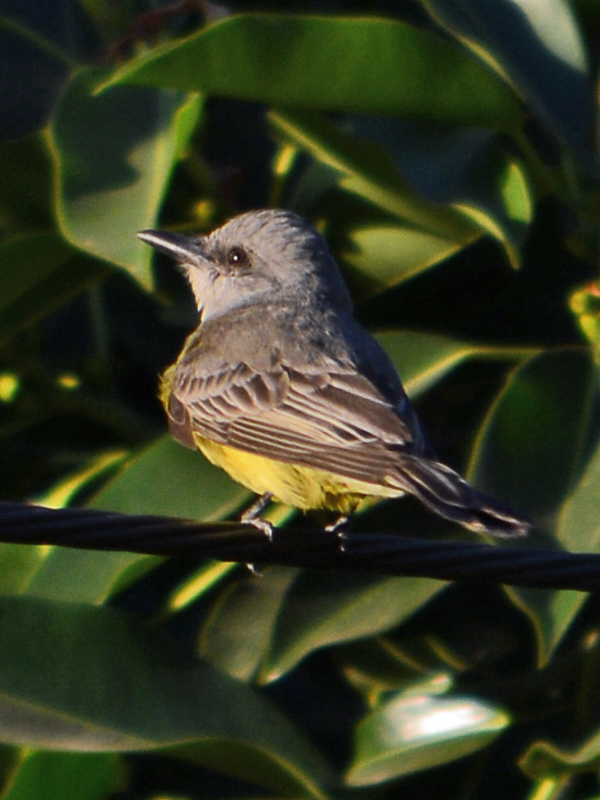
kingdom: Animalia
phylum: Chordata
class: Aves
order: Passeriformes
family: Tyrannidae
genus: Tyrannus
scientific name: Tyrannus melancholicus
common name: Tropical kingbird
